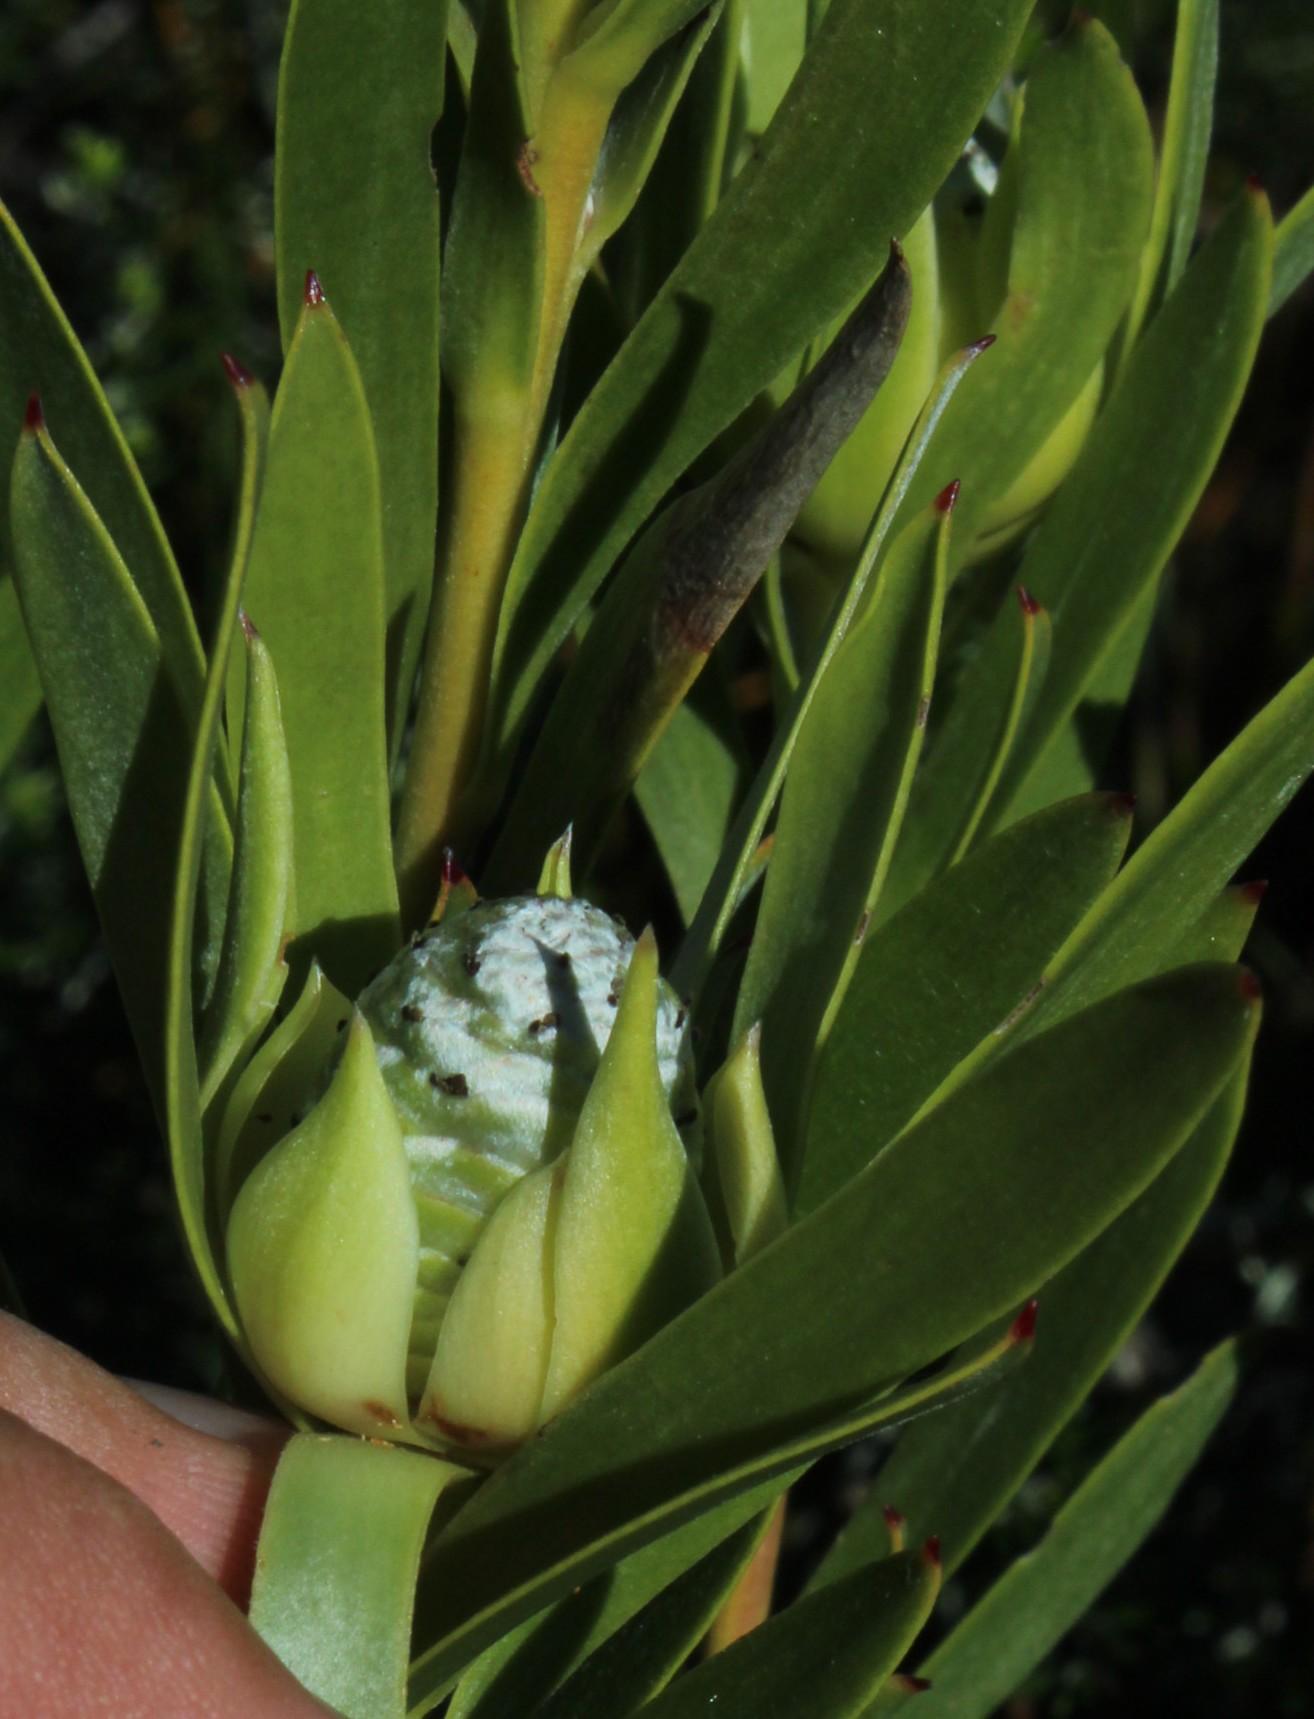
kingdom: Plantae
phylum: Tracheophyta
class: Magnoliopsida
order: Proteales
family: Proteaceae
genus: Leucadendron
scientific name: Leucadendron meridianum
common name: Limestone conebush
